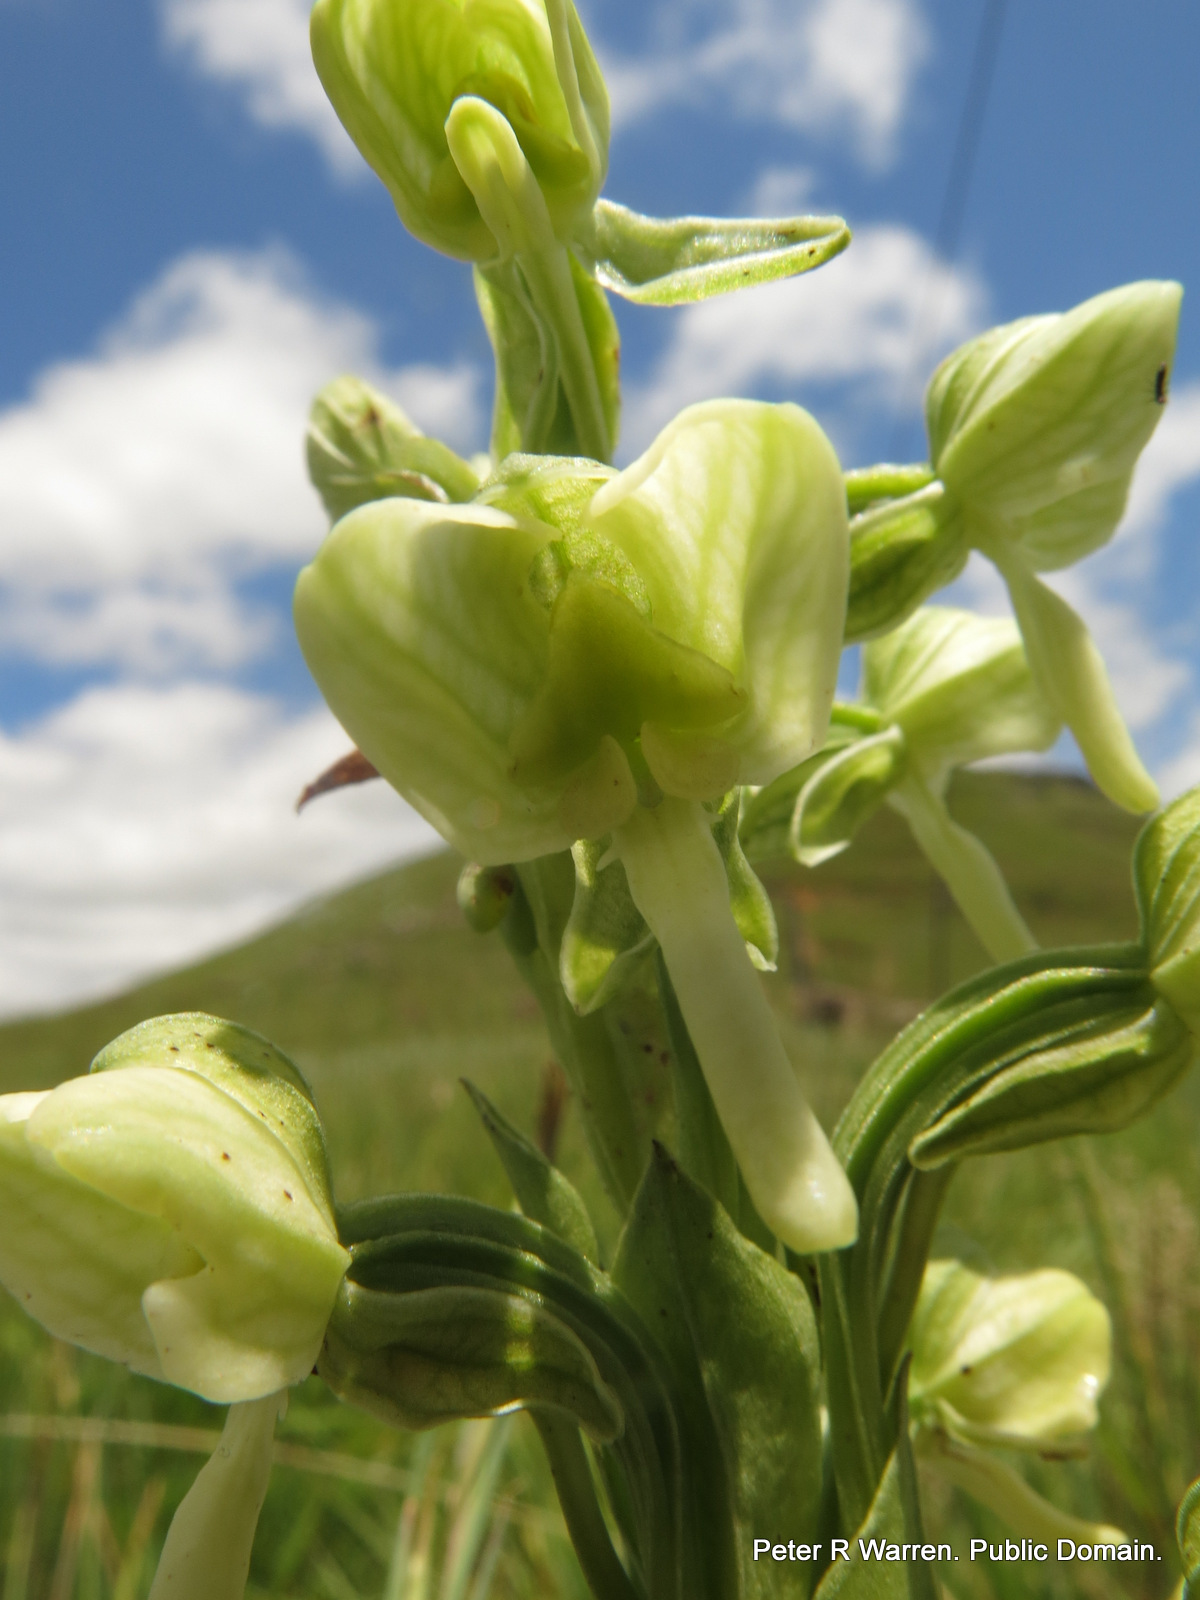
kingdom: Plantae
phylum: Tracheophyta
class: Liliopsida
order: Asparagales
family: Orchidaceae
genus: Habenaria
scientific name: Habenaria epipactidea
